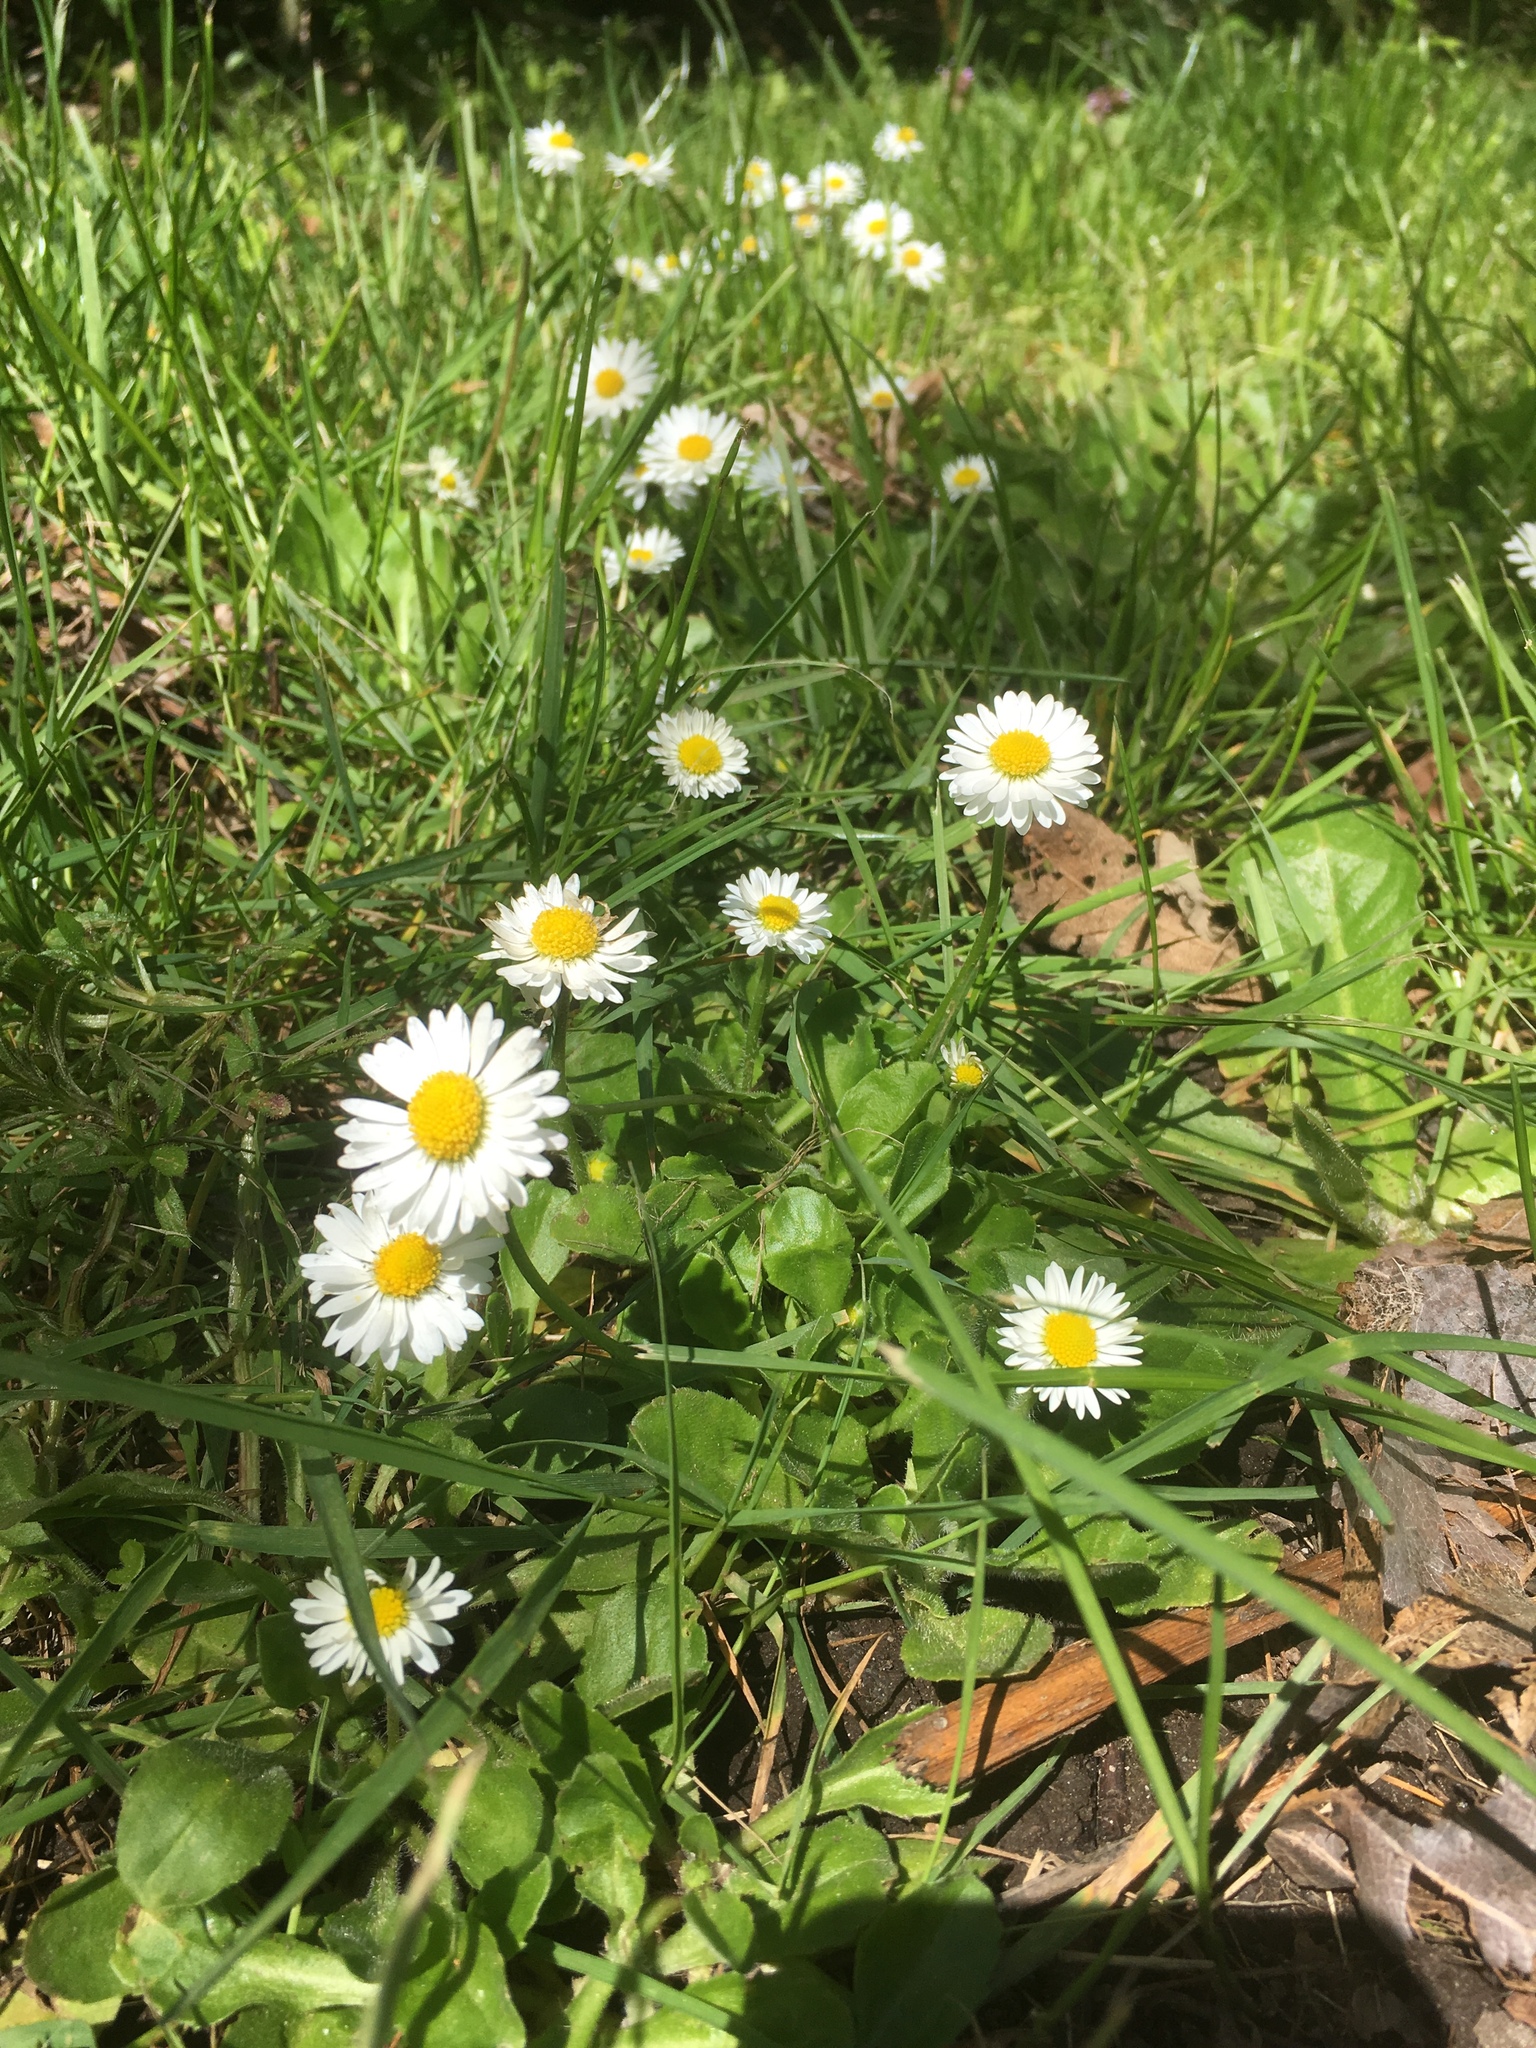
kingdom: Plantae
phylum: Tracheophyta
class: Magnoliopsida
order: Asterales
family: Asteraceae
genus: Bellis
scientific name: Bellis perennis
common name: Lawndaisy
